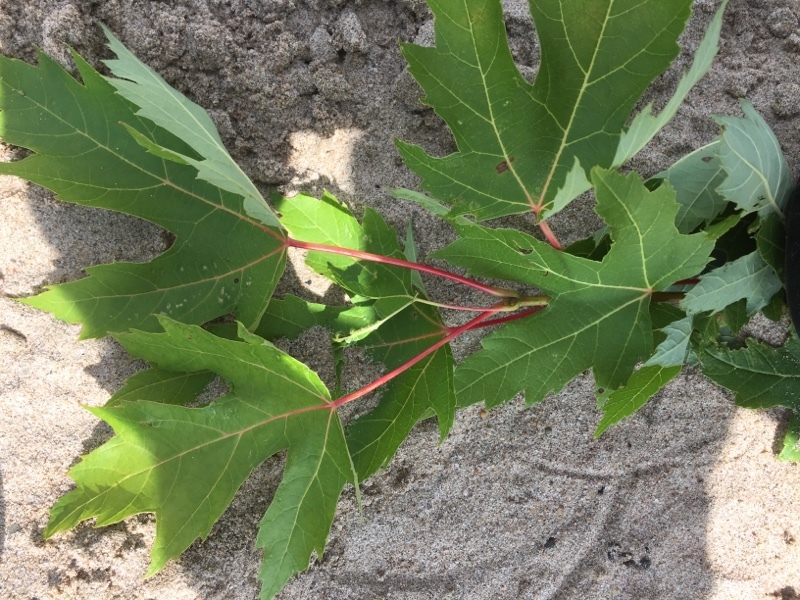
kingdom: Plantae
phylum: Tracheophyta
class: Magnoliopsida
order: Sapindales
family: Sapindaceae
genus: Acer
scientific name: Acer saccharinum
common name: Silver maple
